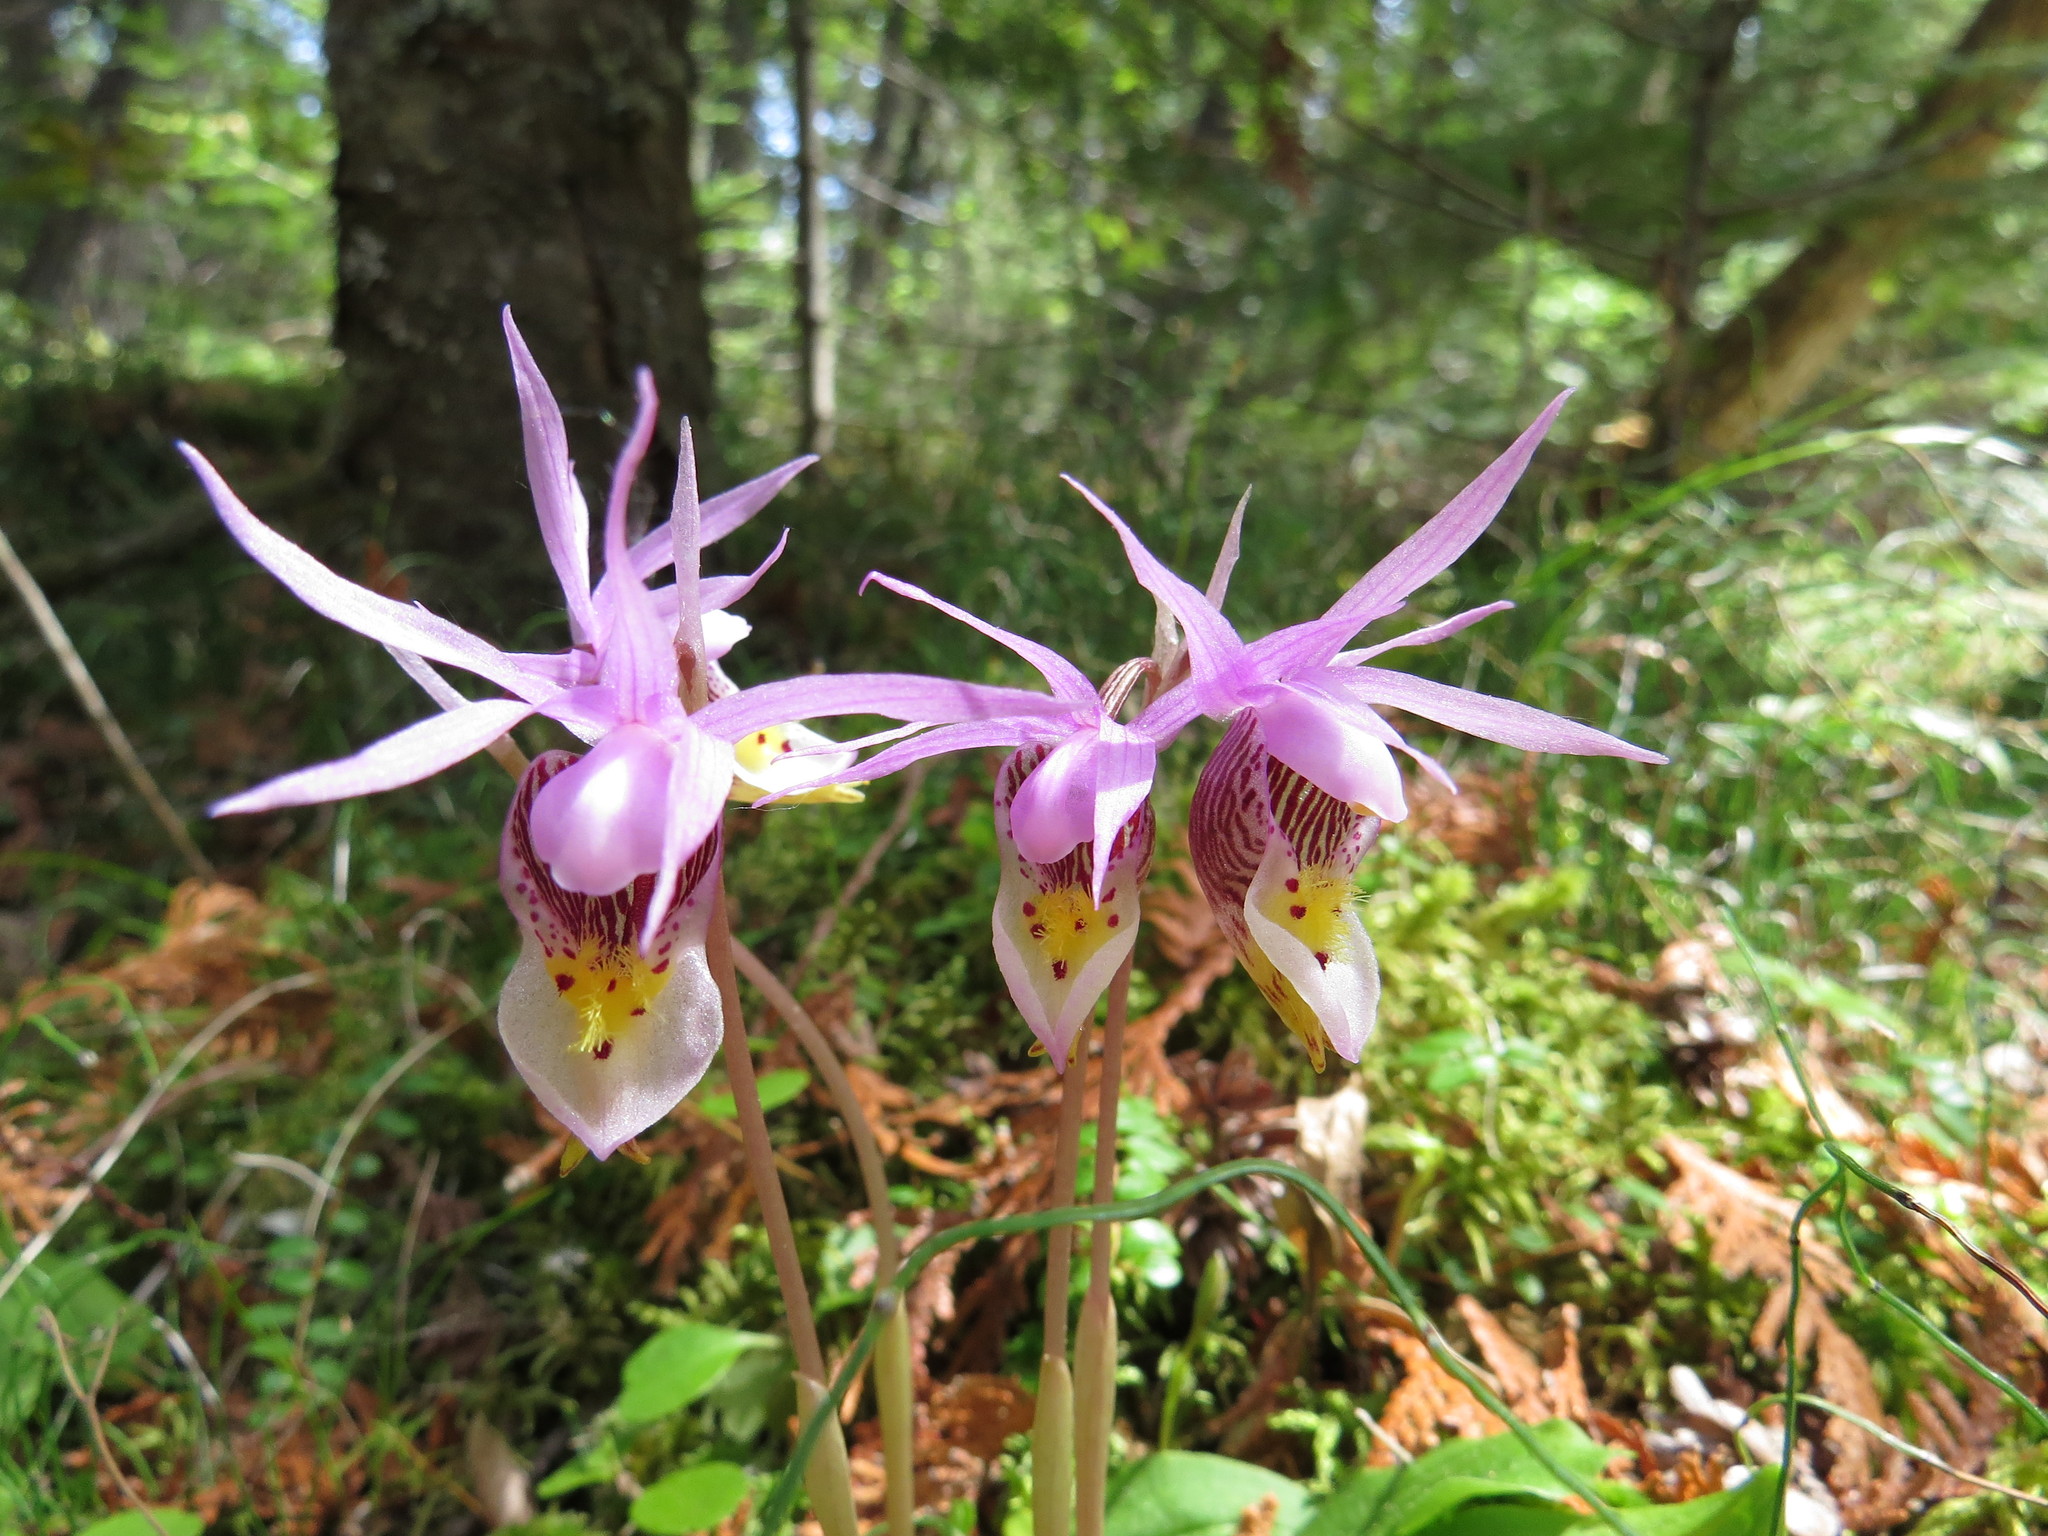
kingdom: Plantae
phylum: Tracheophyta
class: Liliopsida
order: Asparagales
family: Orchidaceae
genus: Calypso
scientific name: Calypso bulbosa
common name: Calypso
